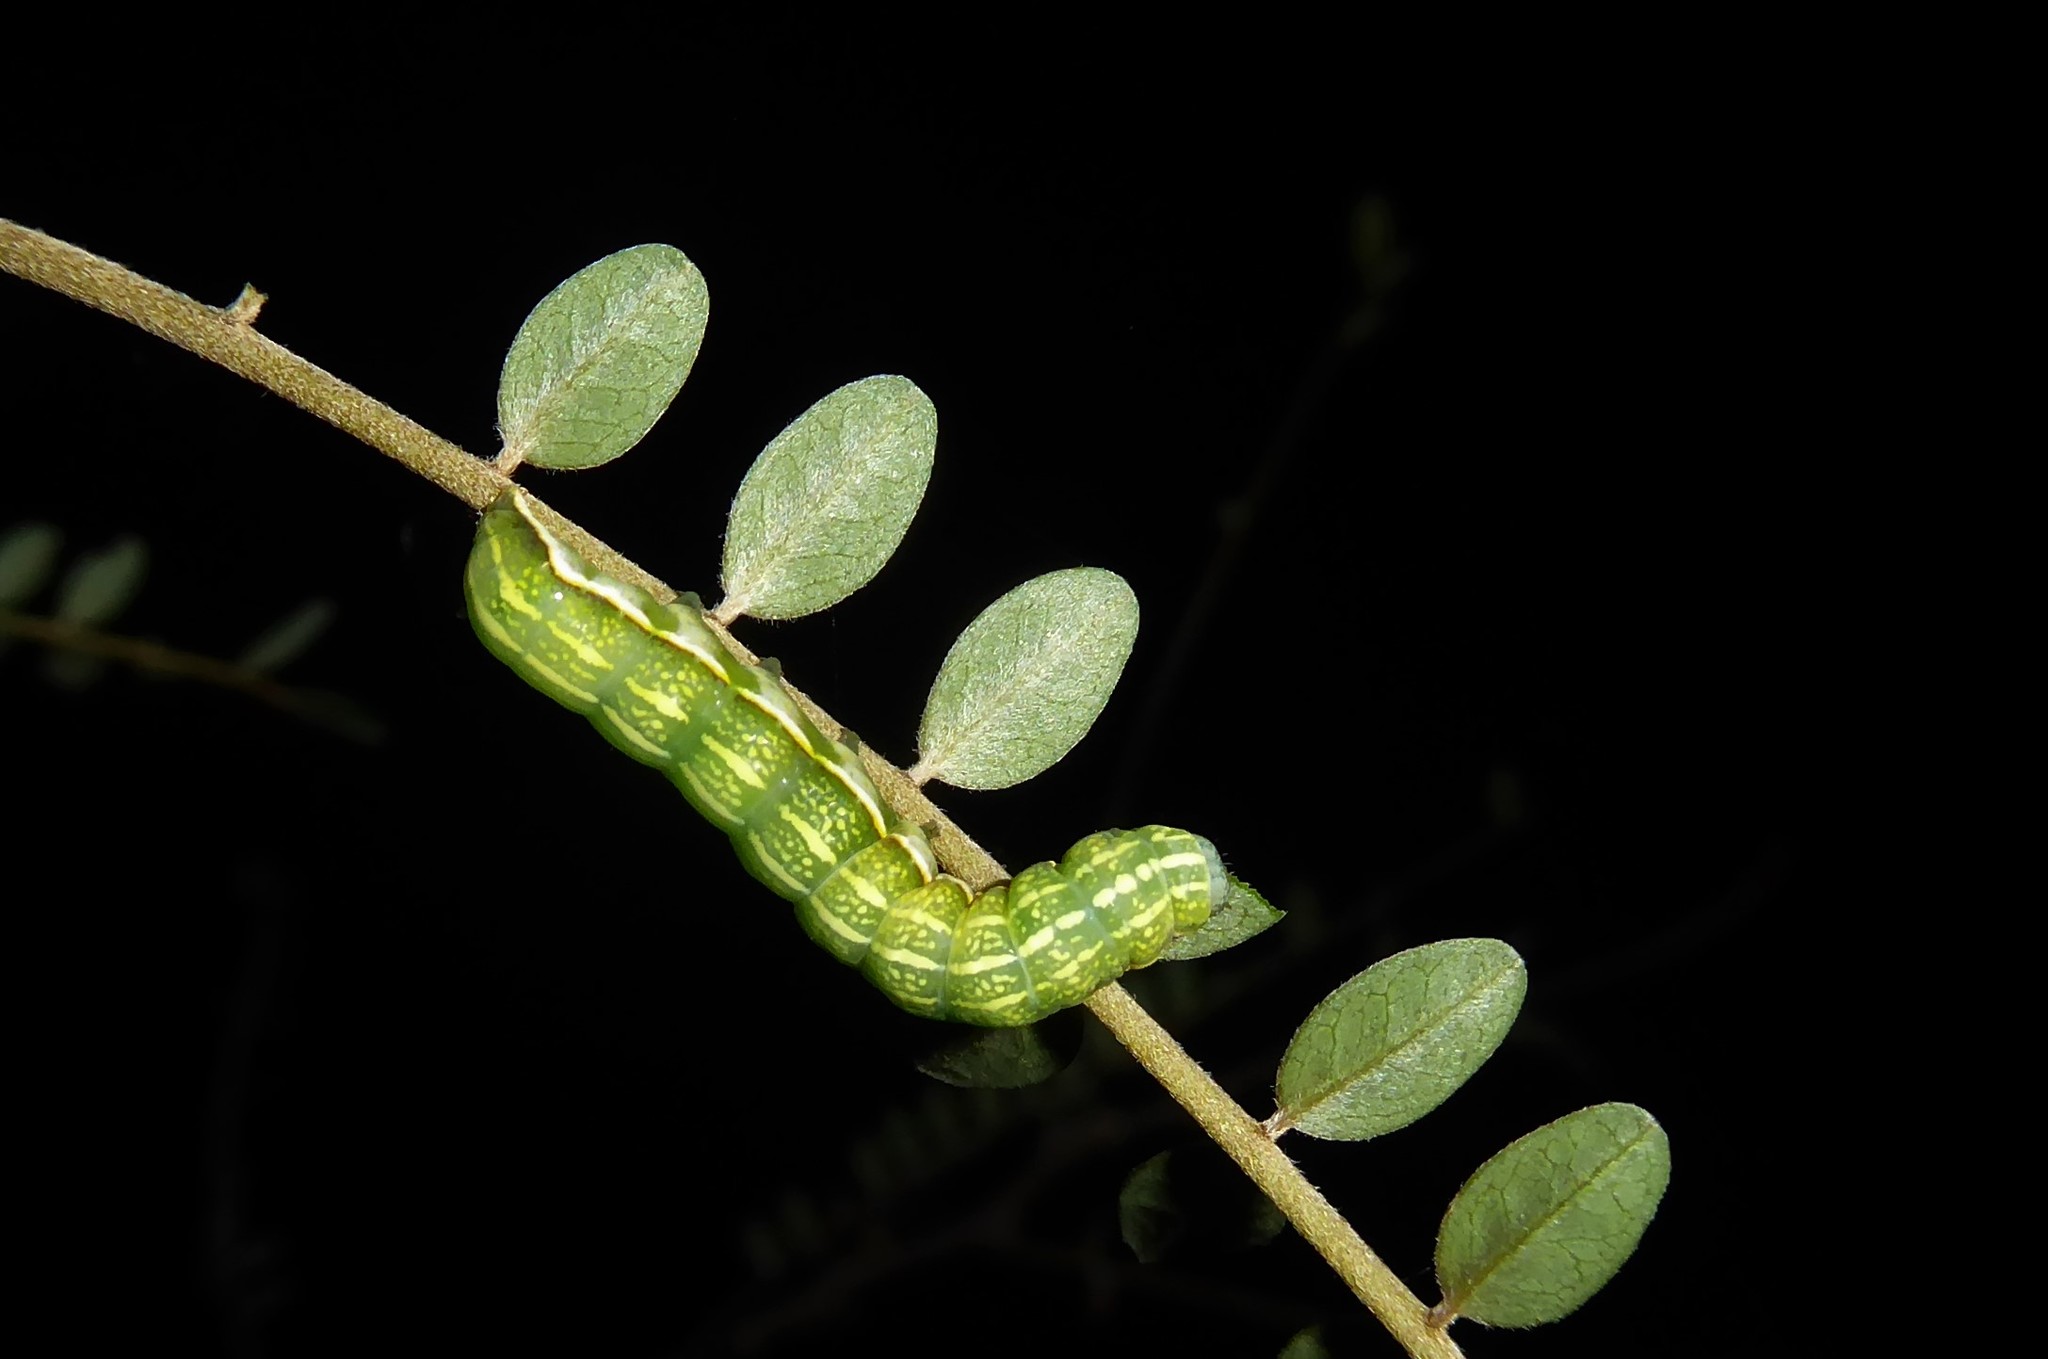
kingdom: Animalia
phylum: Arthropoda
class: Insecta
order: Lepidoptera
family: Noctuidae
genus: Meterana
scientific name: Meterana decorata
